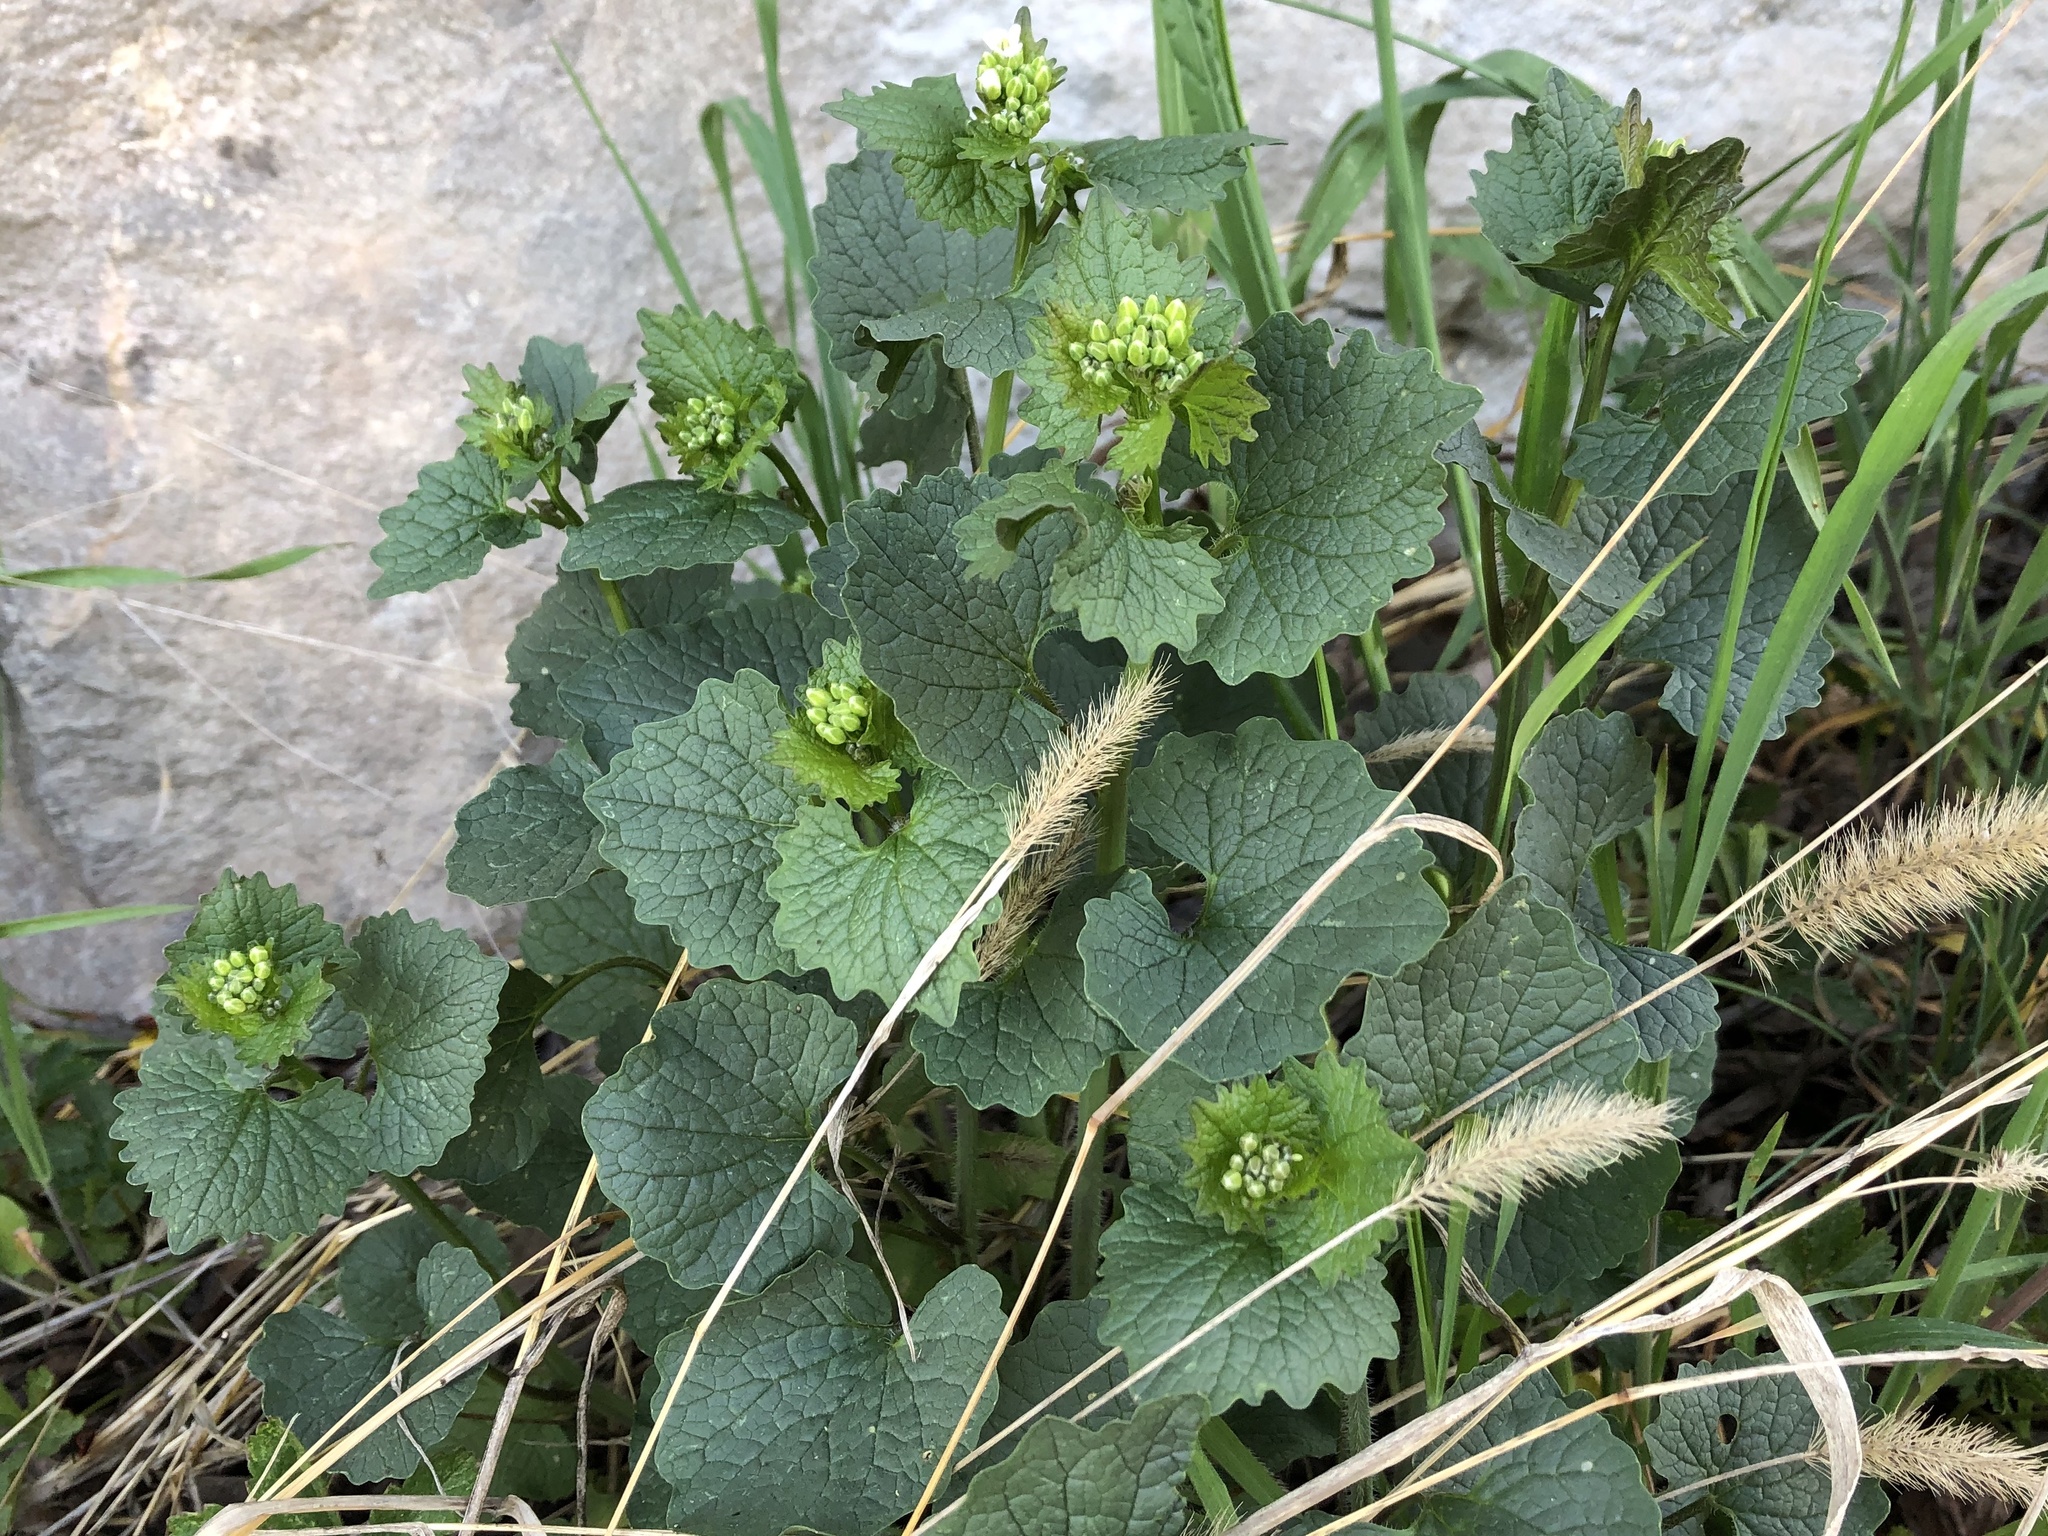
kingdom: Plantae
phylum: Tracheophyta
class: Magnoliopsida
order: Brassicales
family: Brassicaceae
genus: Alliaria
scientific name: Alliaria petiolata
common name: Garlic mustard
